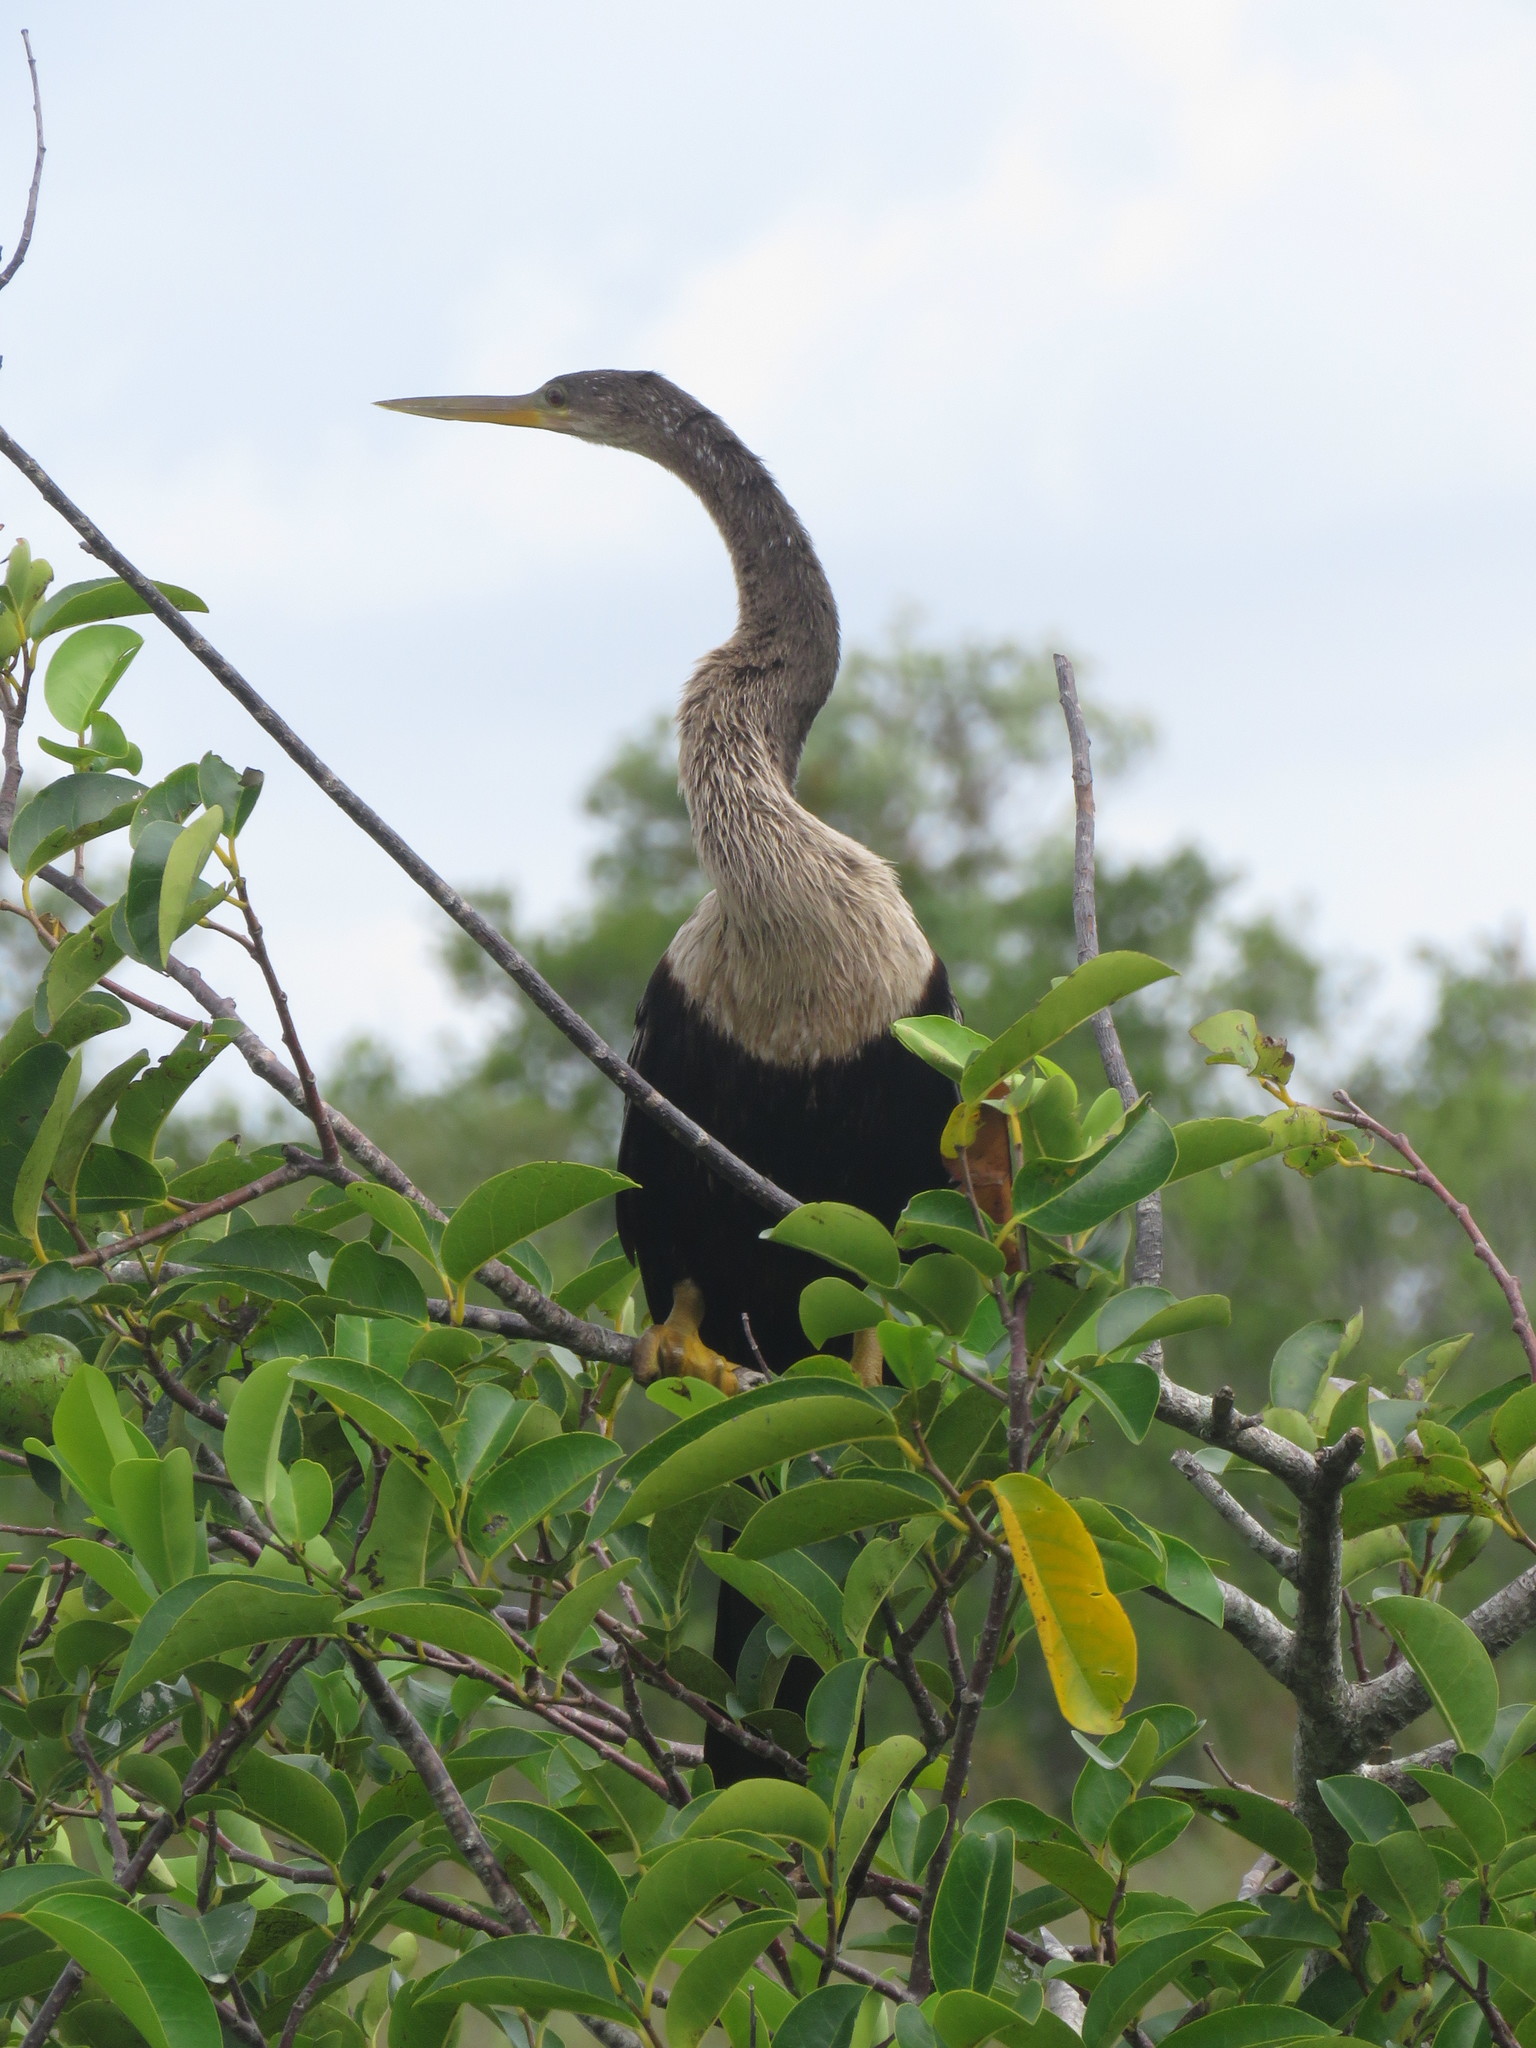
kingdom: Animalia
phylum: Chordata
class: Aves
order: Suliformes
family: Anhingidae
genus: Anhinga
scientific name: Anhinga anhinga
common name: Anhinga
